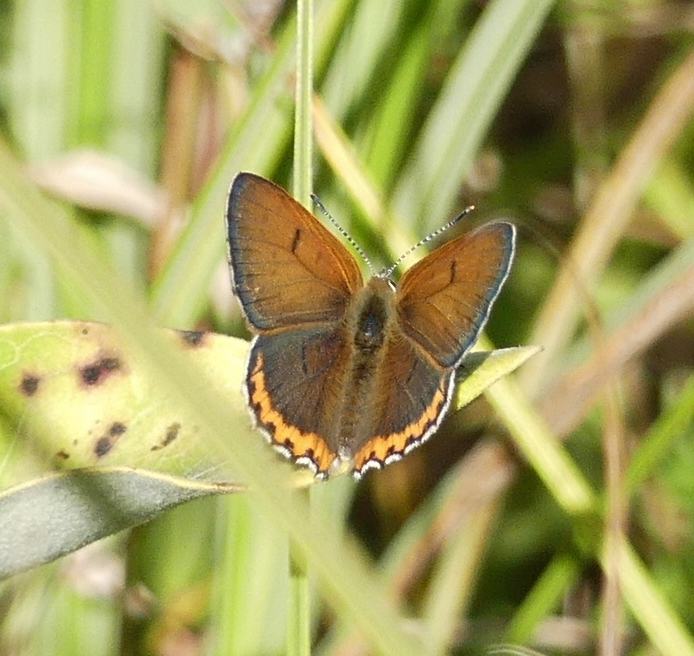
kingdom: Animalia
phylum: Arthropoda
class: Insecta
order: Lepidoptera
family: Lycaenidae
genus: Tharsalea
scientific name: Tharsalea hyllus
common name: Bronze copper
